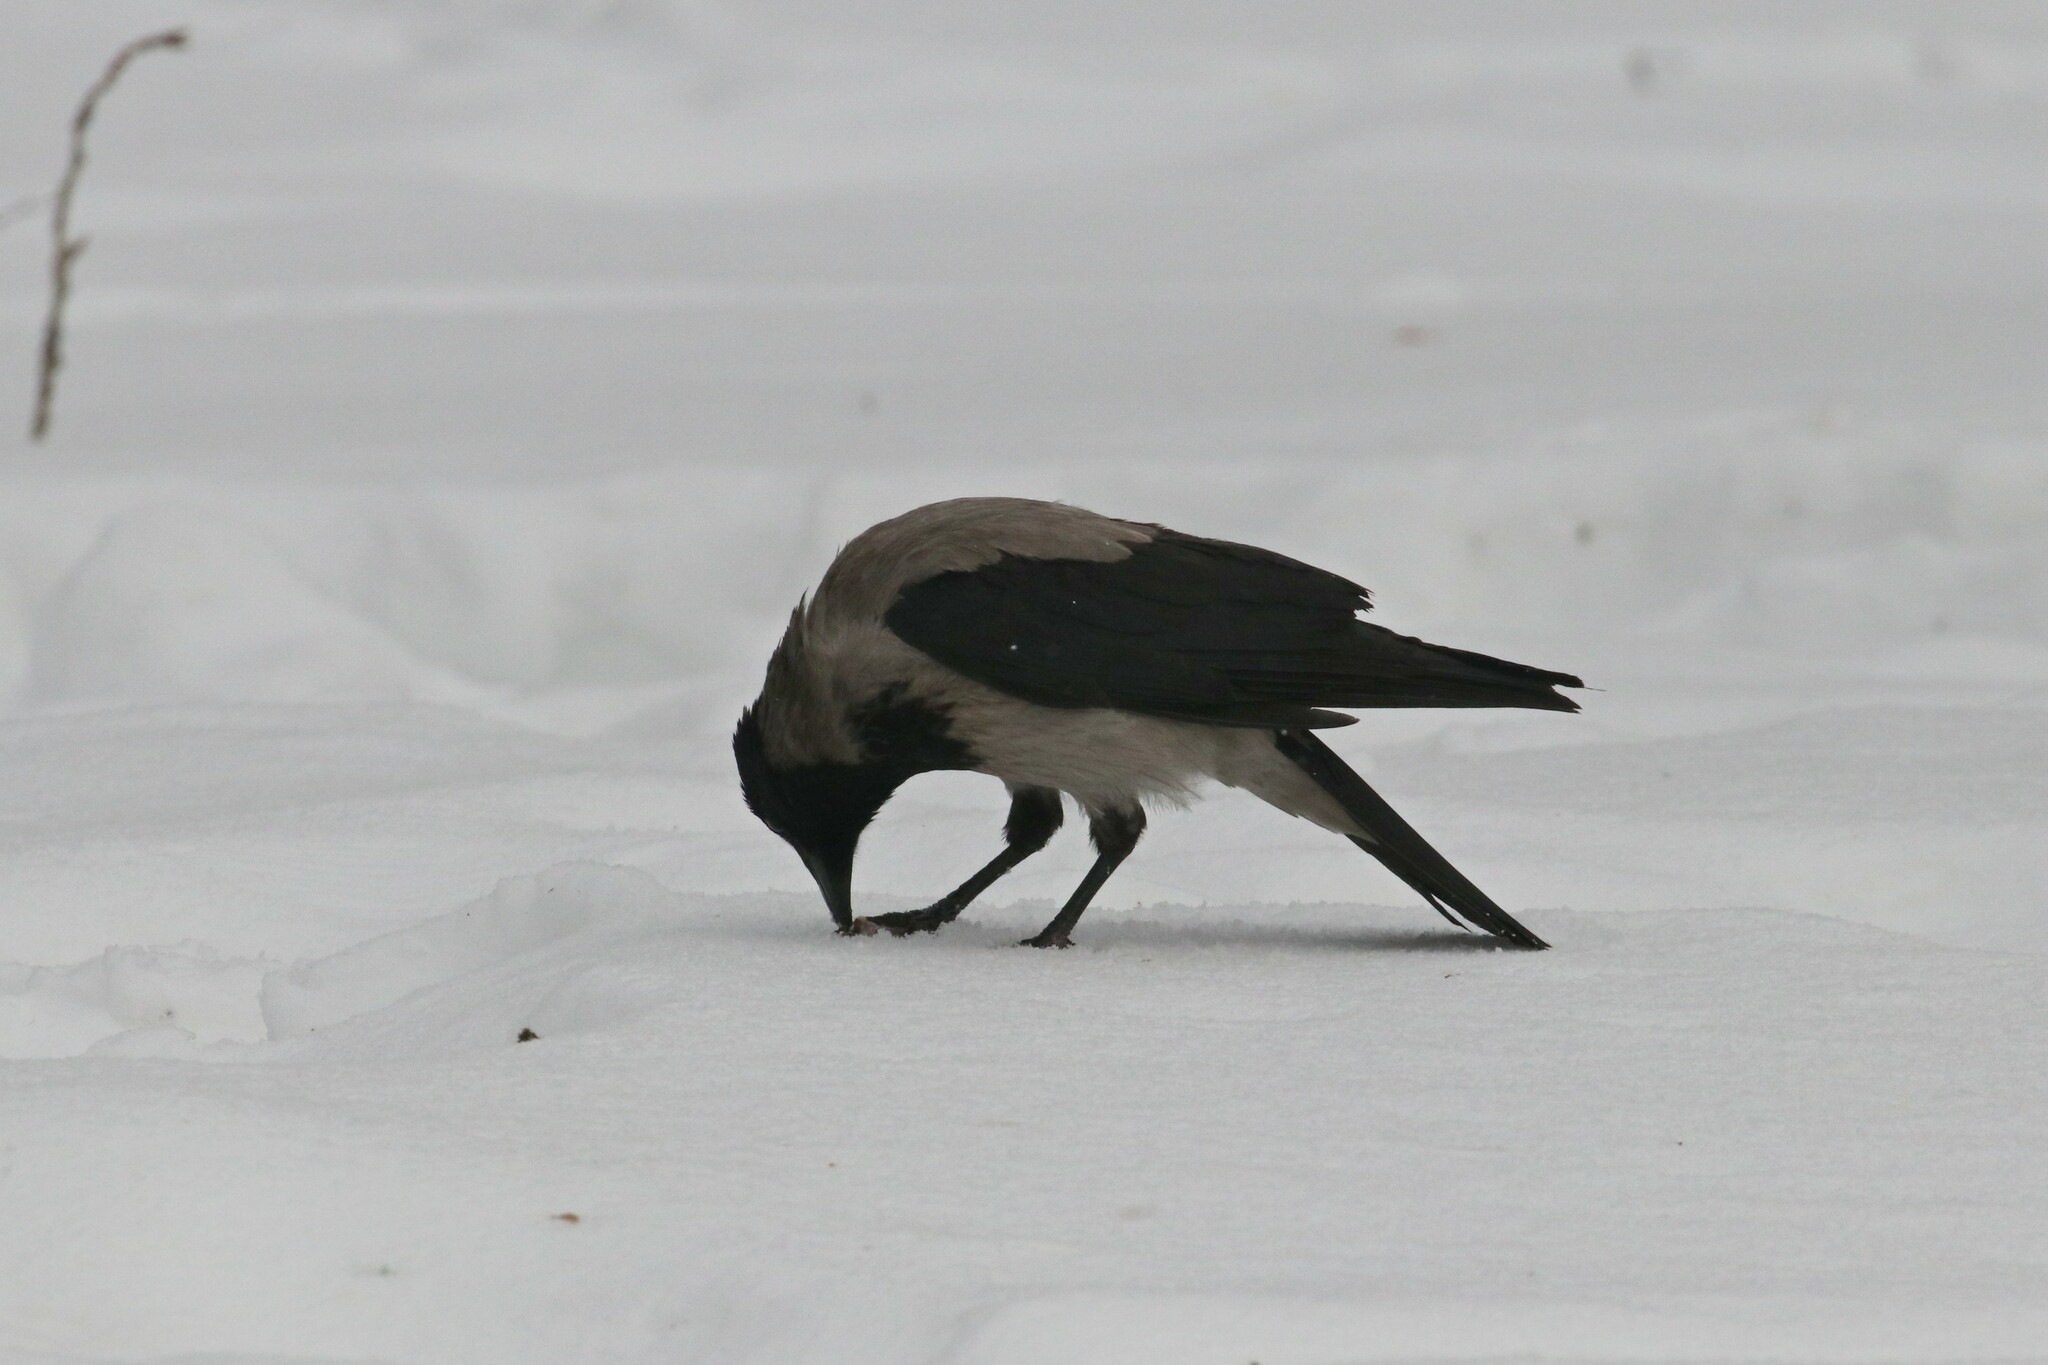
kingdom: Animalia
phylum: Chordata
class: Aves
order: Passeriformes
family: Corvidae
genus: Corvus
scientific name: Corvus cornix
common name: Hooded crow
